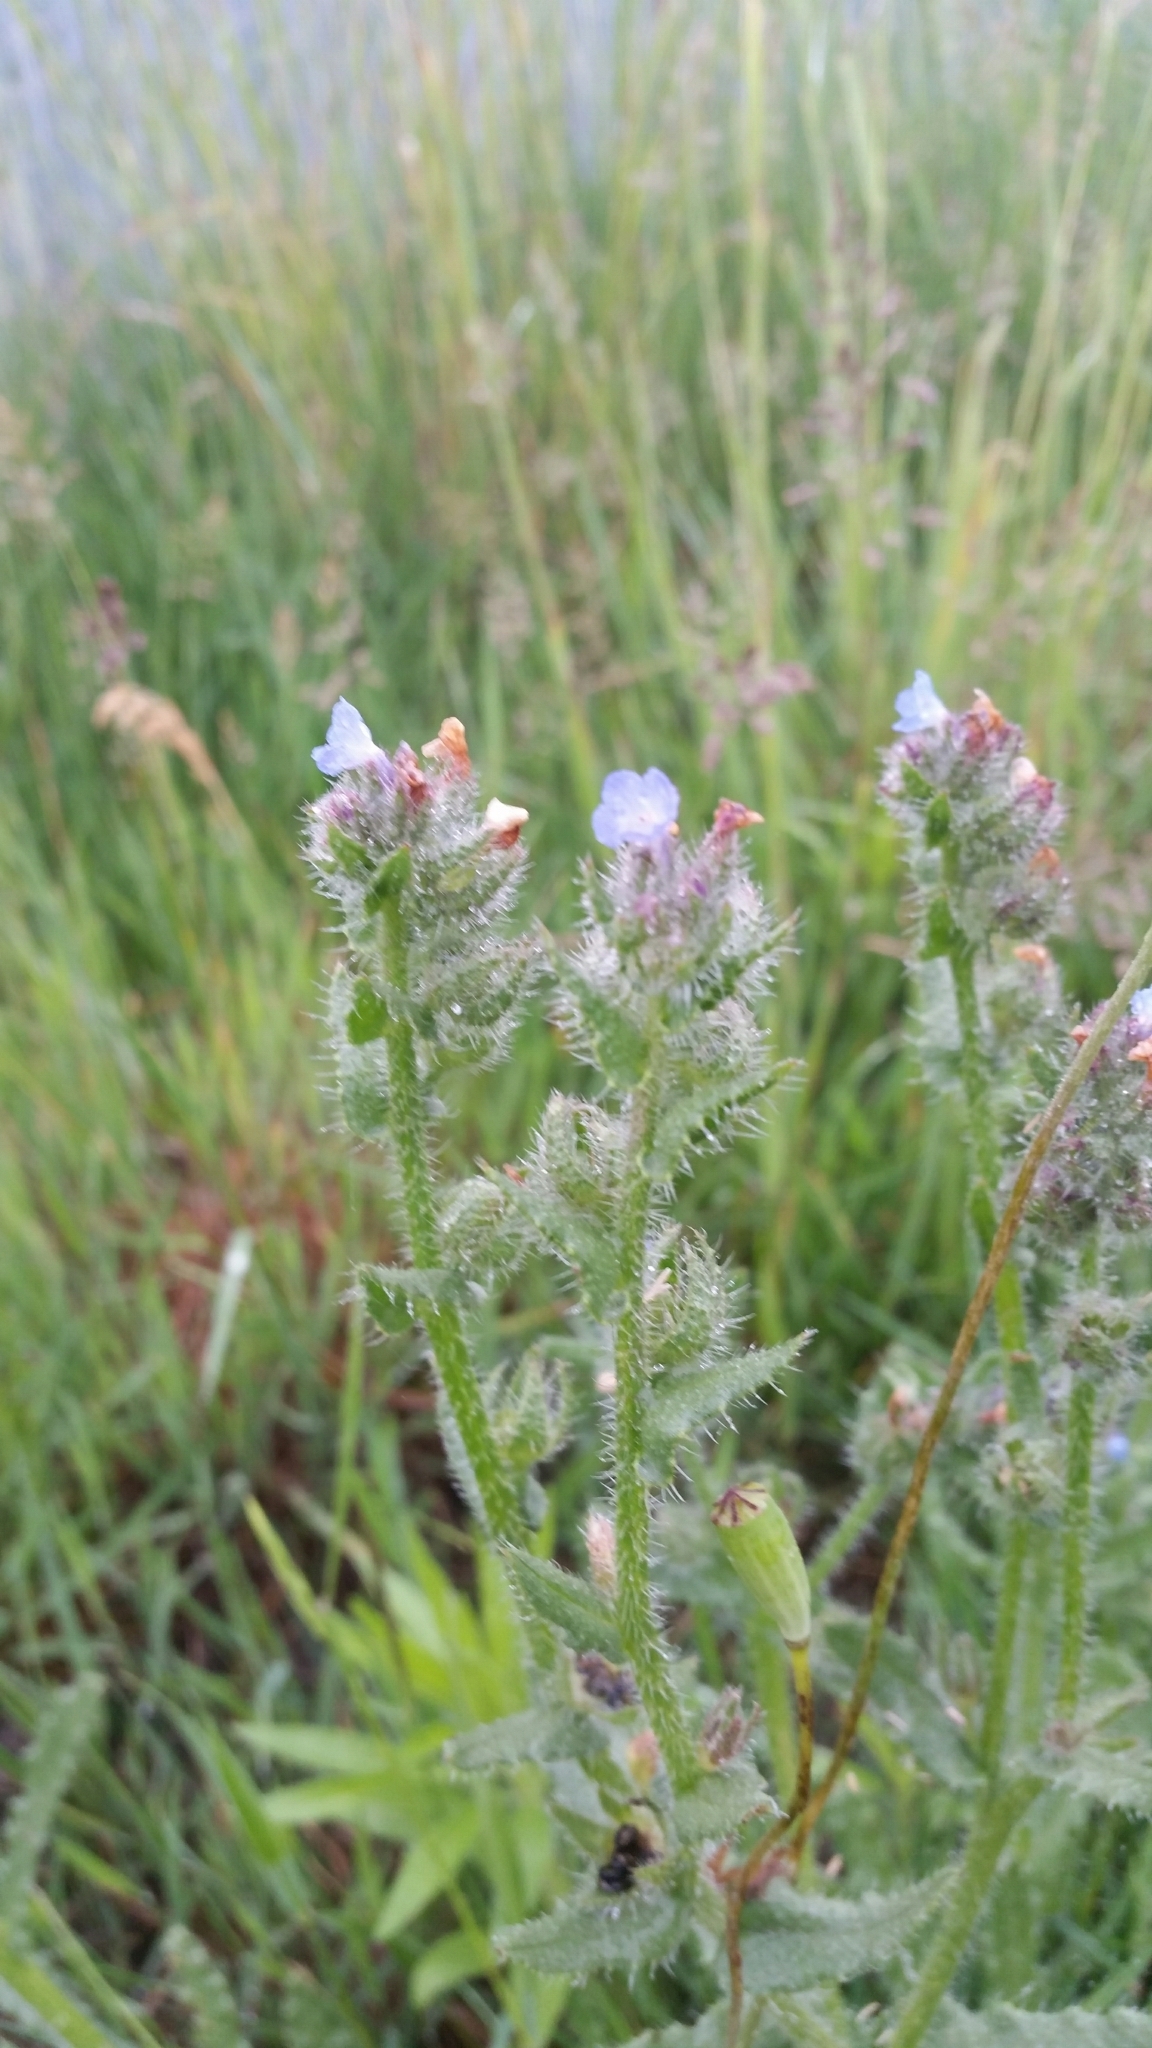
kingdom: Plantae
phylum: Tracheophyta
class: Magnoliopsida
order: Boraginales
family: Boraginaceae
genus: Lycopsis
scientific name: Lycopsis arvensis
